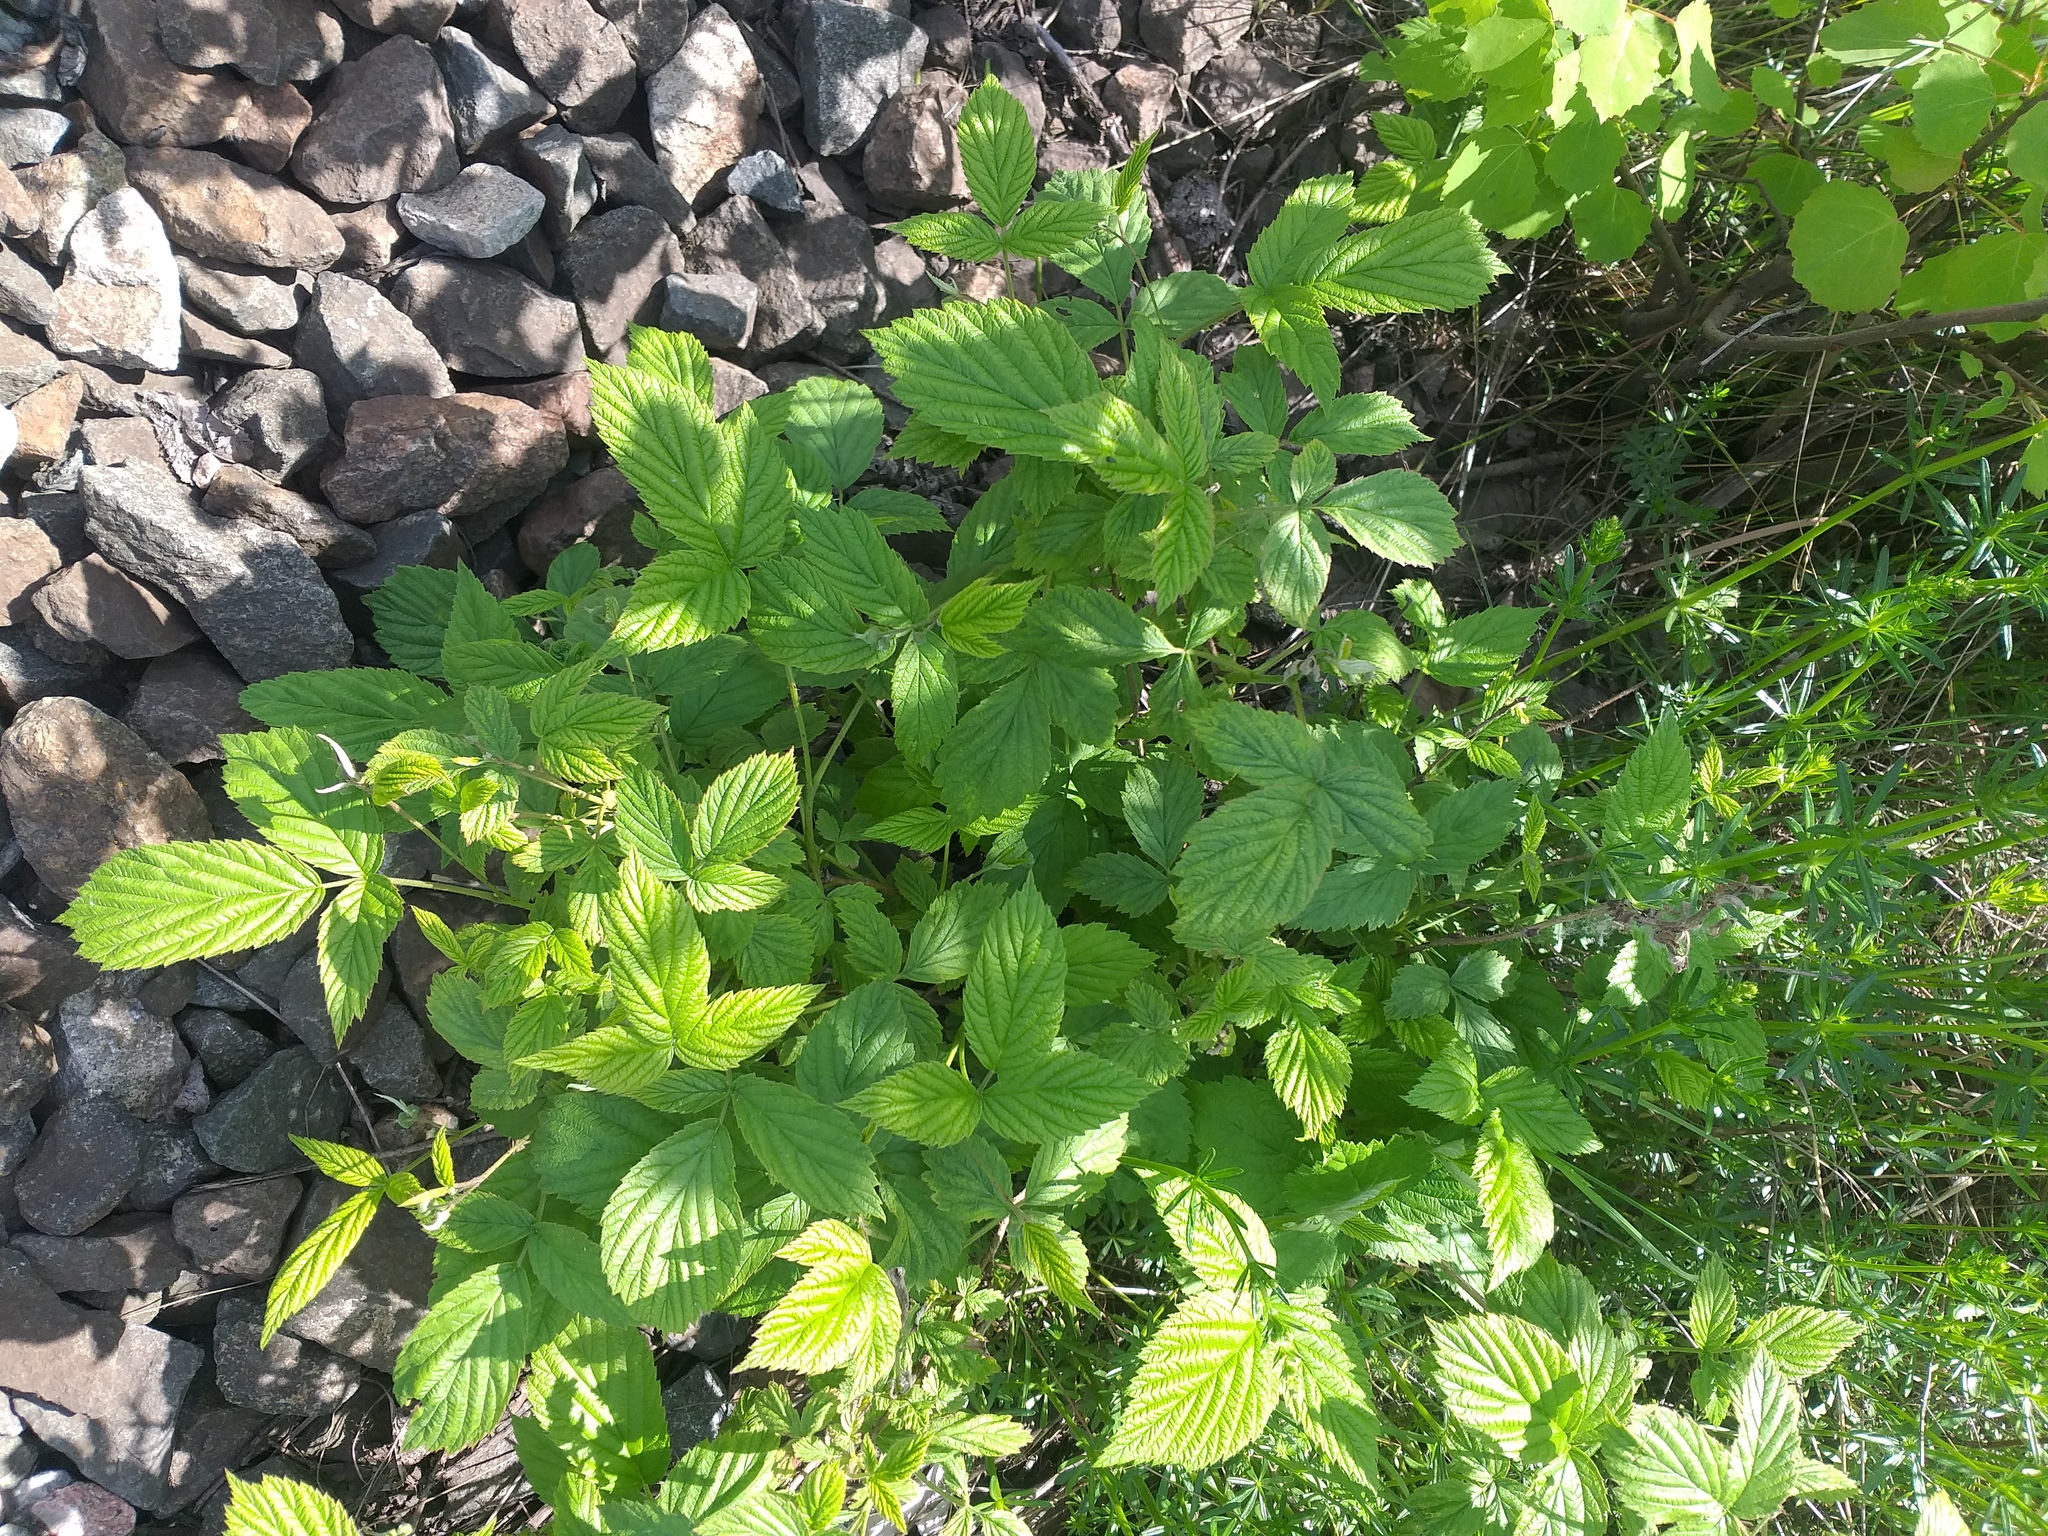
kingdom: Plantae
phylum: Tracheophyta
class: Magnoliopsida
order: Rosales
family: Rosaceae
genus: Rubus
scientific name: Rubus idaeus
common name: Raspberry
